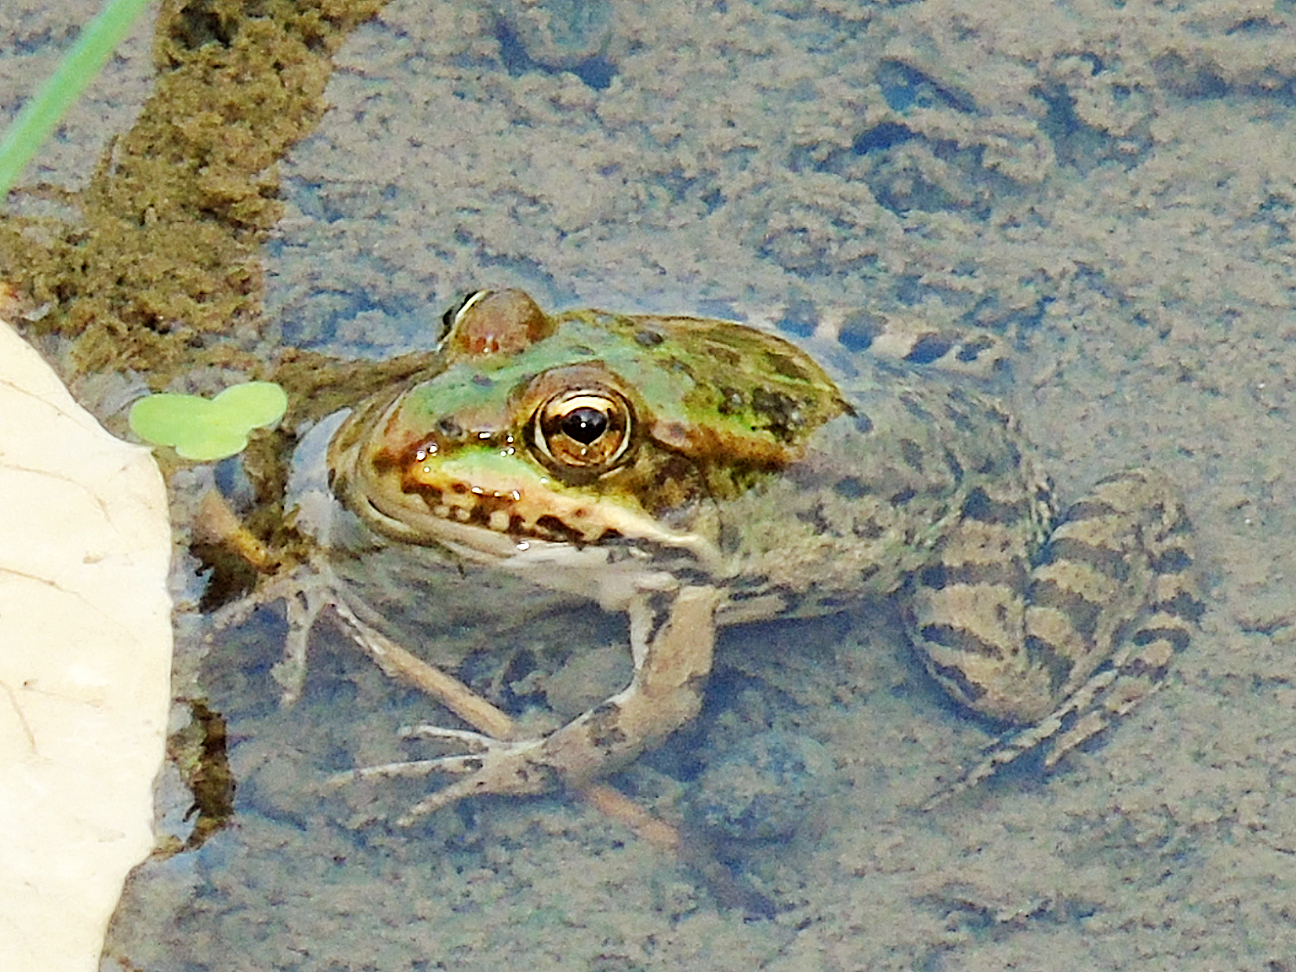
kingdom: Animalia
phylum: Chordata
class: Amphibia
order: Anura
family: Ranidae
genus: Pelophylax
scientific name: Pelophylax ridibundus
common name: Marsh frog
